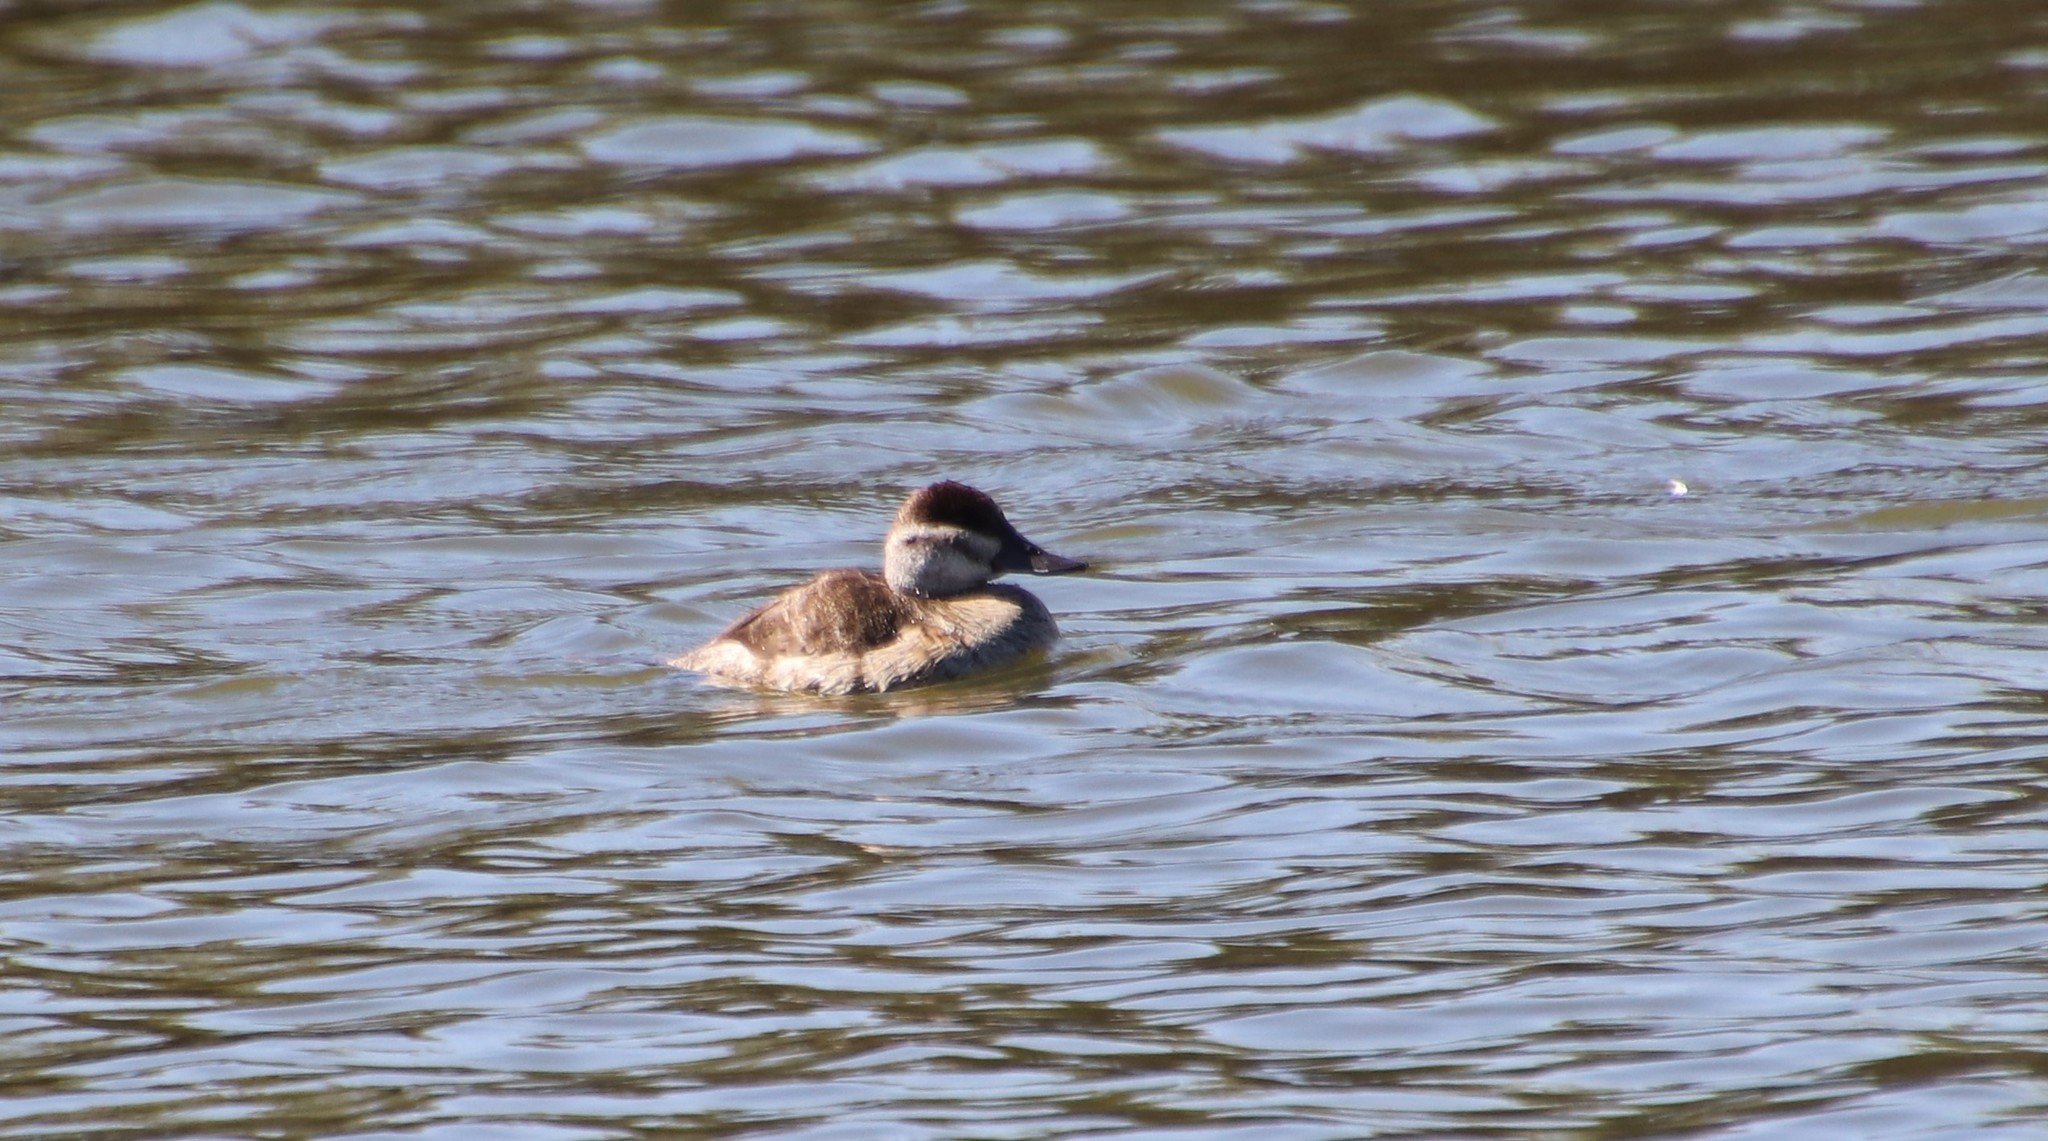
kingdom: Animalia
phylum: Chordata
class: Aves
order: Anseriformes
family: Anatidae
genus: Oxyura
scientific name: Oxyura jamaicensis
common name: Ruddy duck
